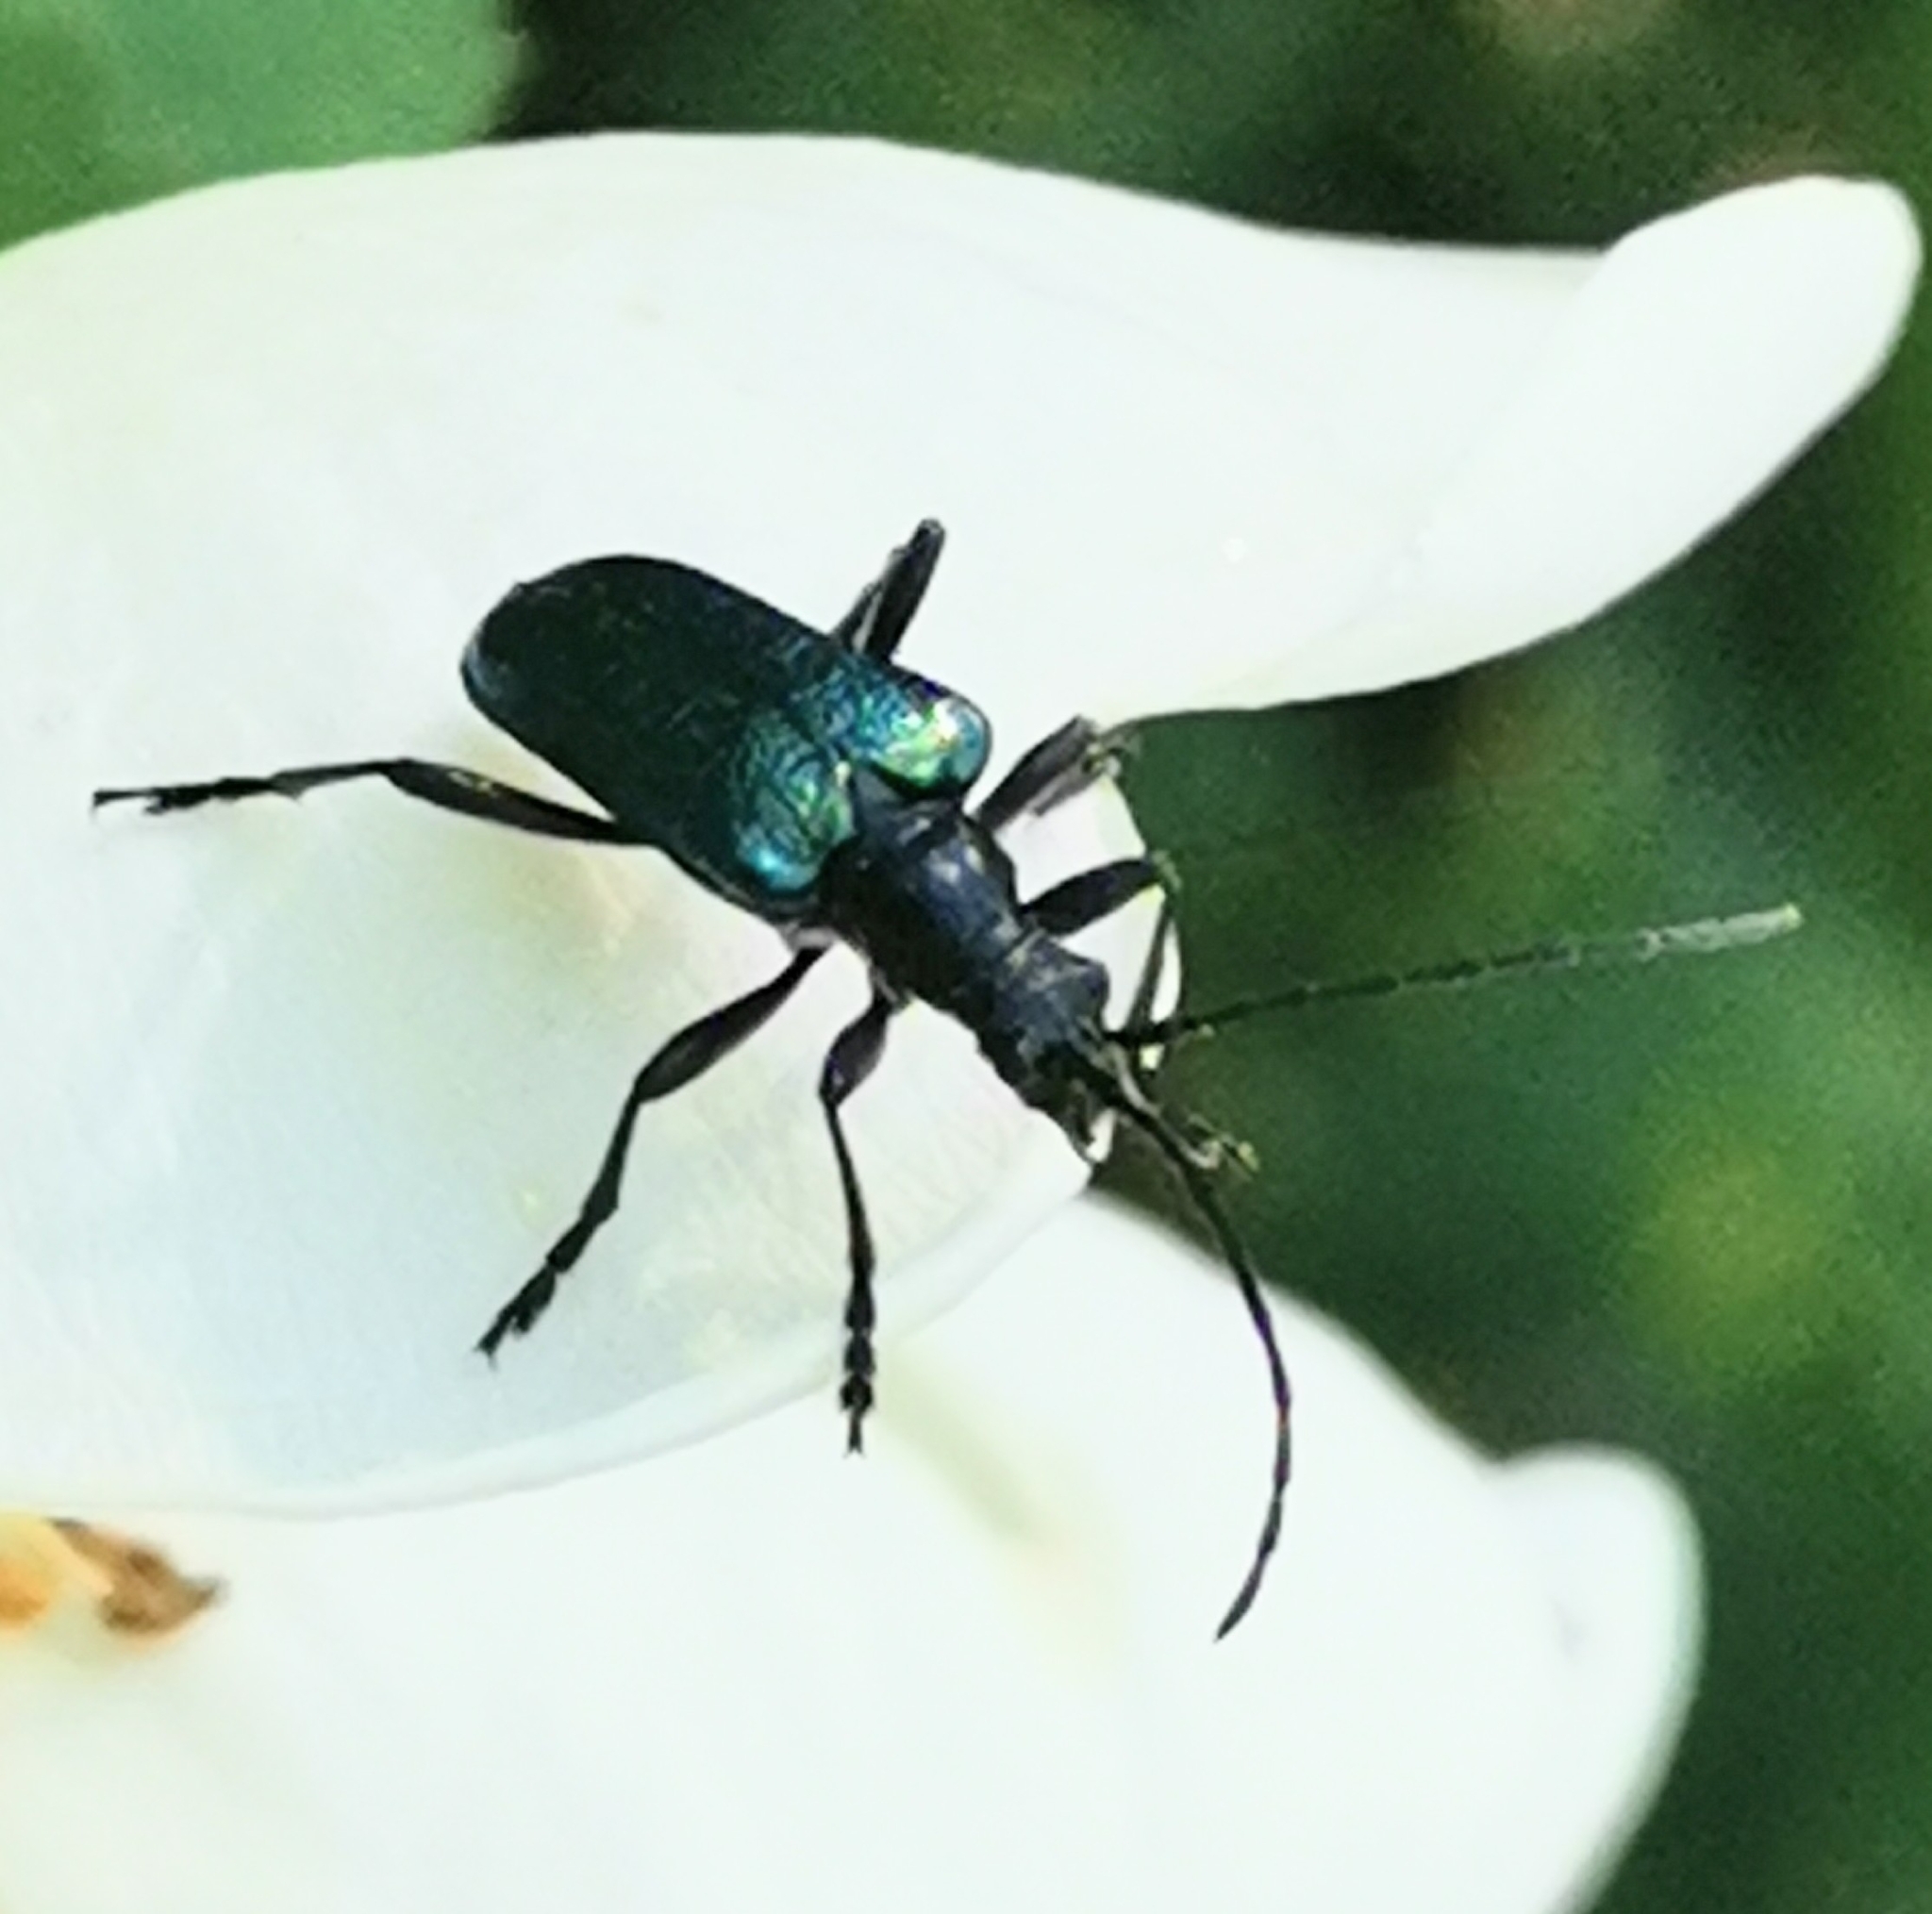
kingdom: Animalia
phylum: Arthropoda
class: Insecta
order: Coleoptera
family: Cerambycidae
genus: Gaurotes
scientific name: Gaurotes virginea
